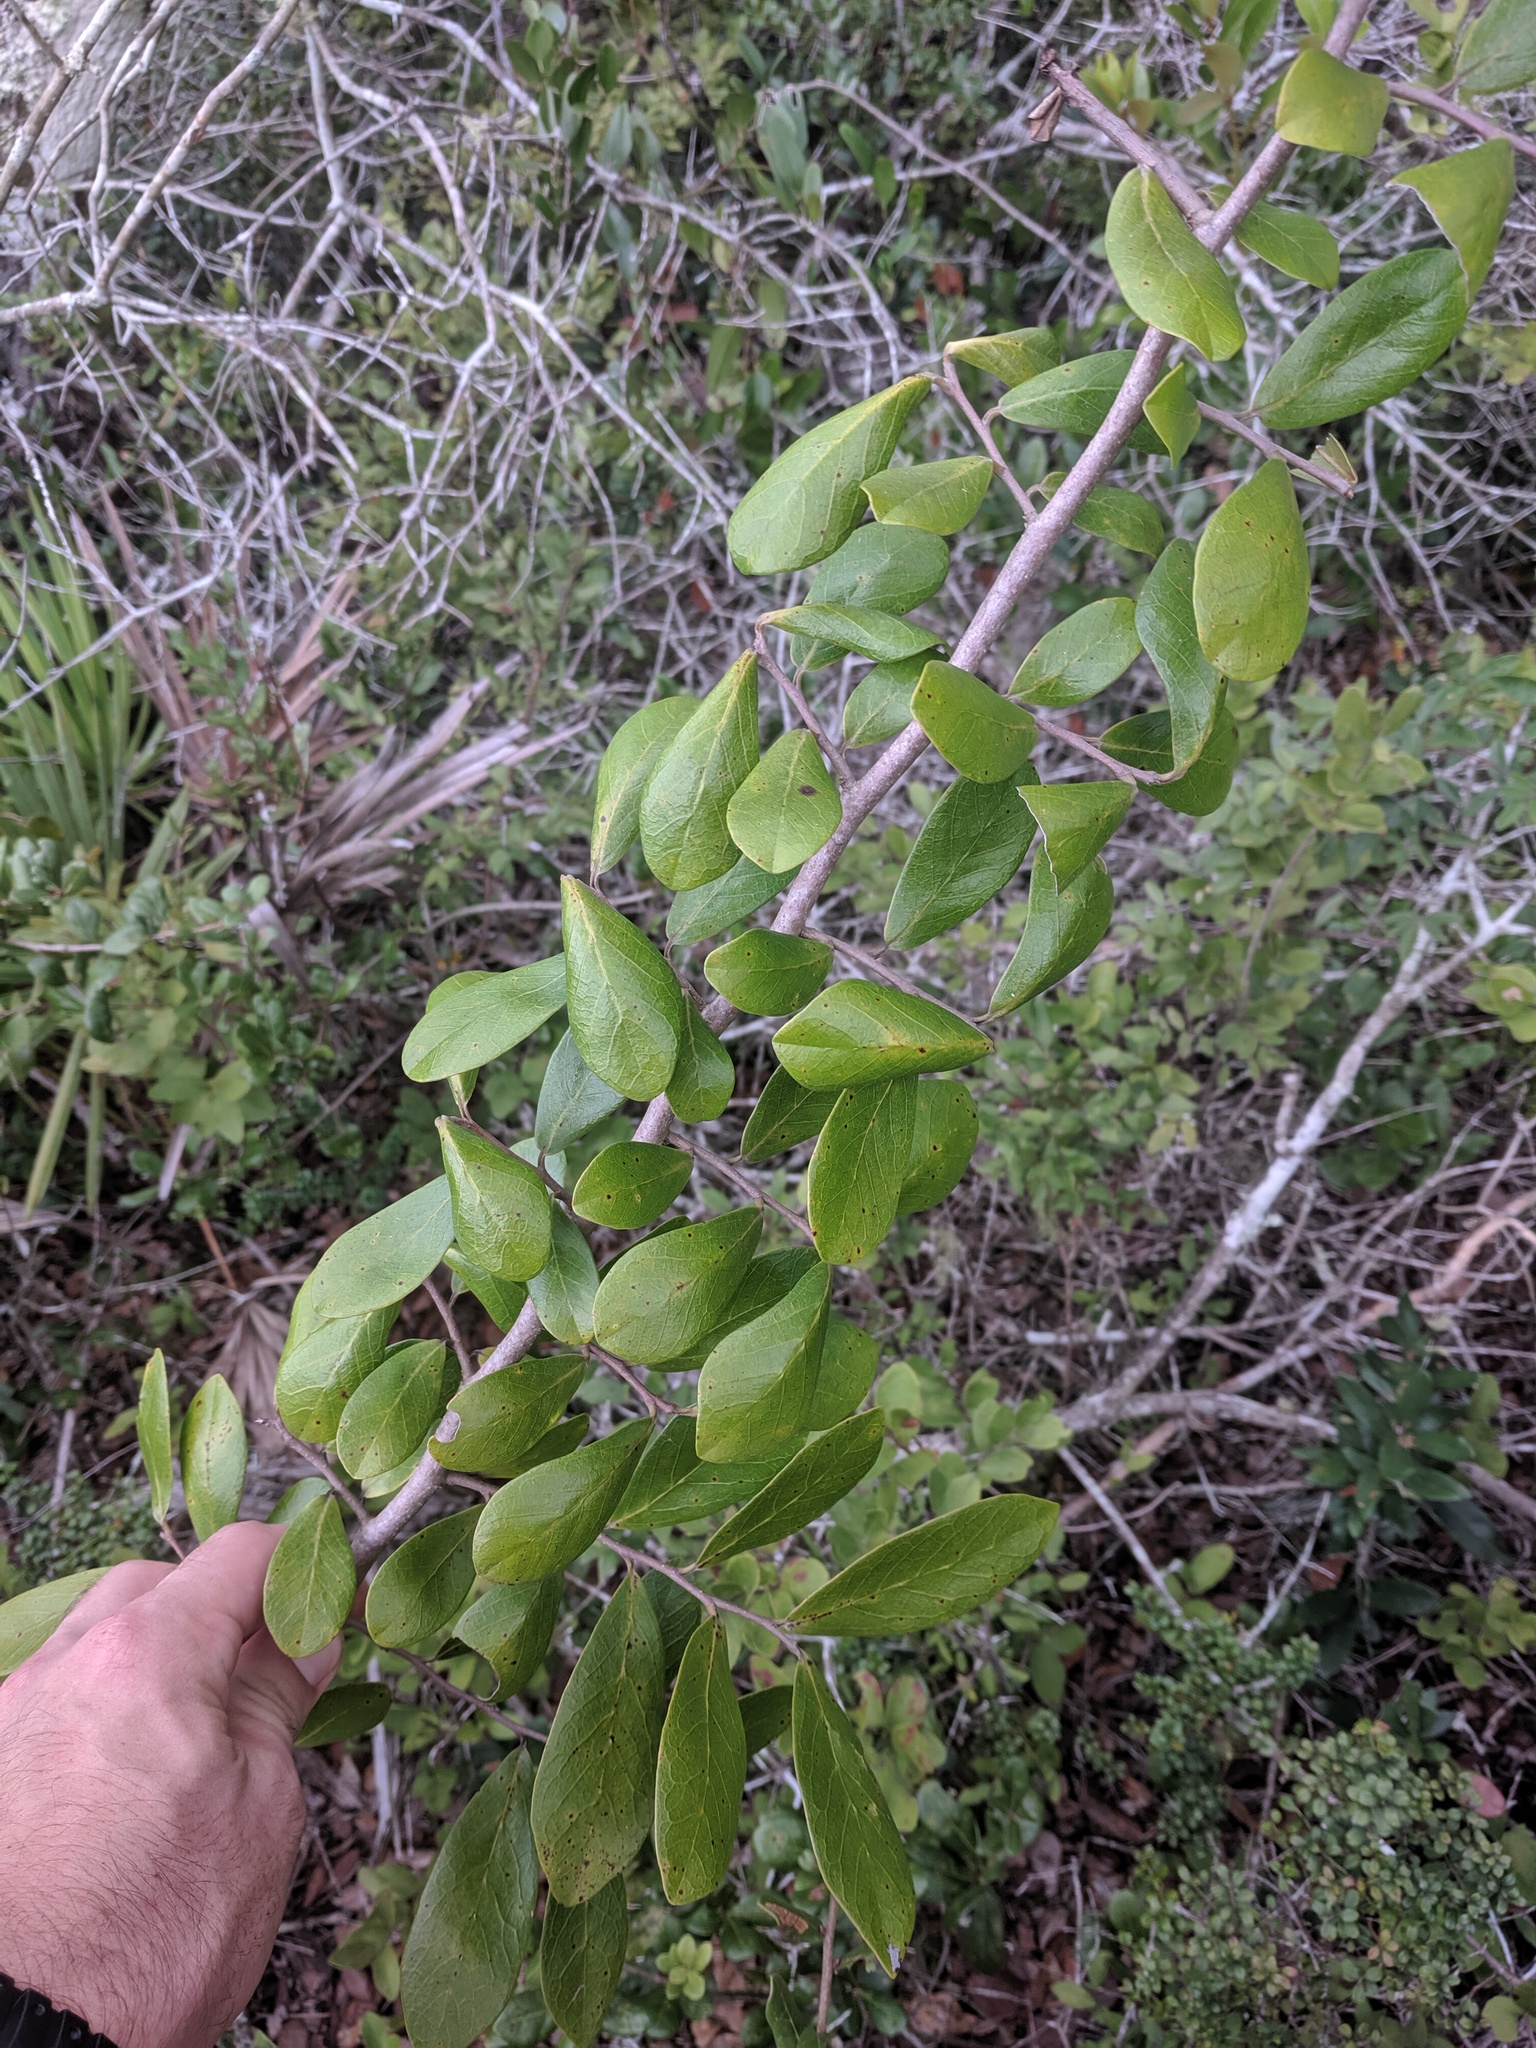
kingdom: Plantae
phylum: Tracheophyta
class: Magnoliopsida
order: Magnoliales
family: Annonaceae
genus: Asimina
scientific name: Asimina obovata
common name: Flag pawpaw
